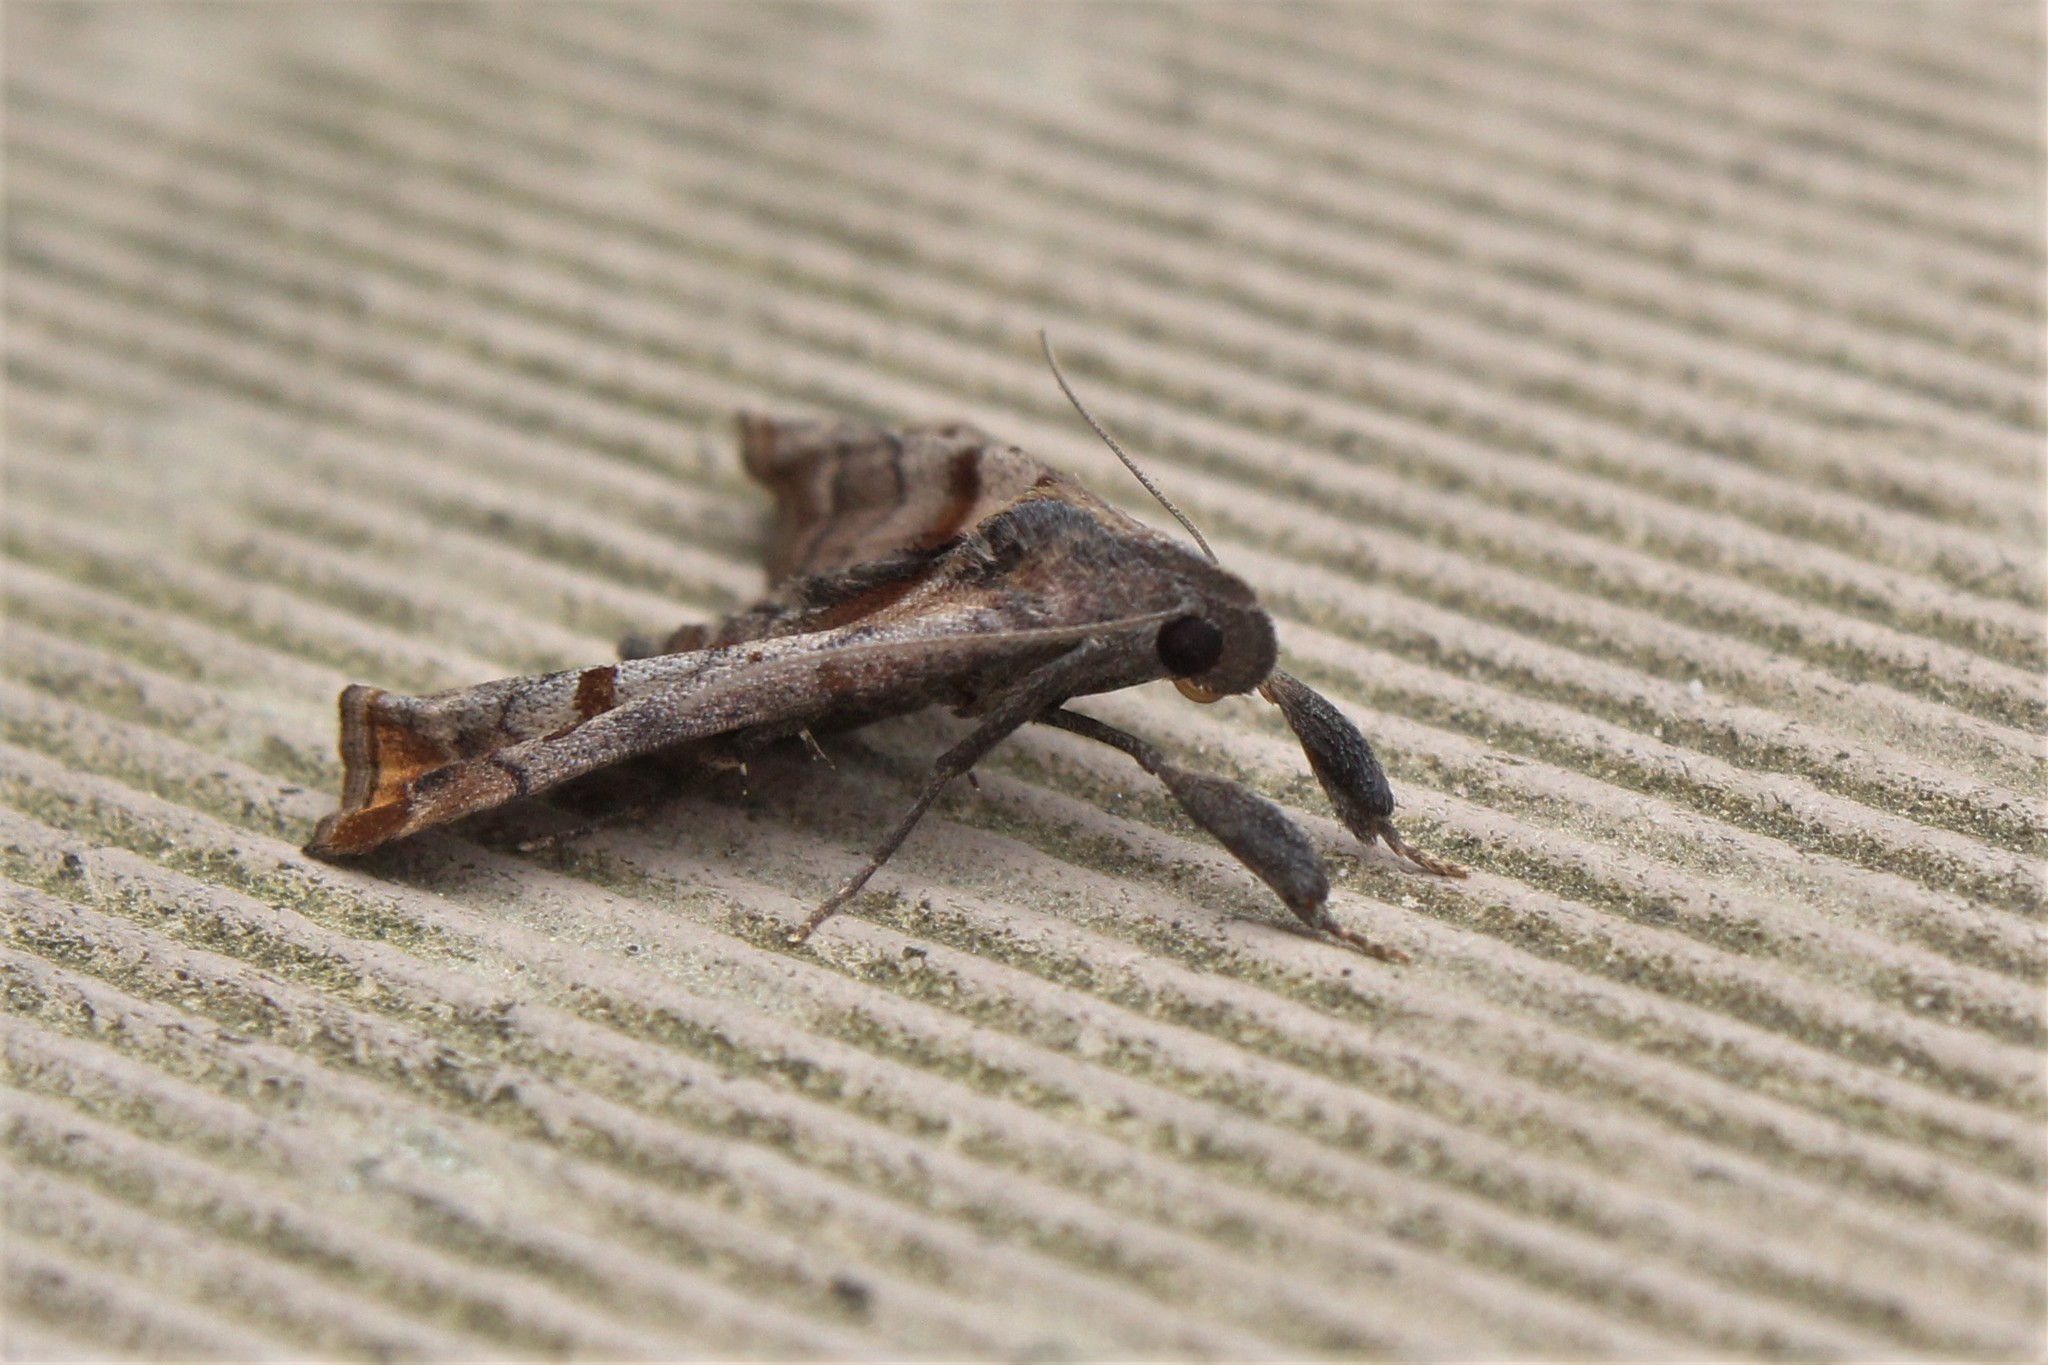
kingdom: Animalia
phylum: Arthropoda
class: Insecta
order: Lepidoptera
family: Erebidae
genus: Palthis
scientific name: Palthis angulalis
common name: Dark-spotted palthis moth
